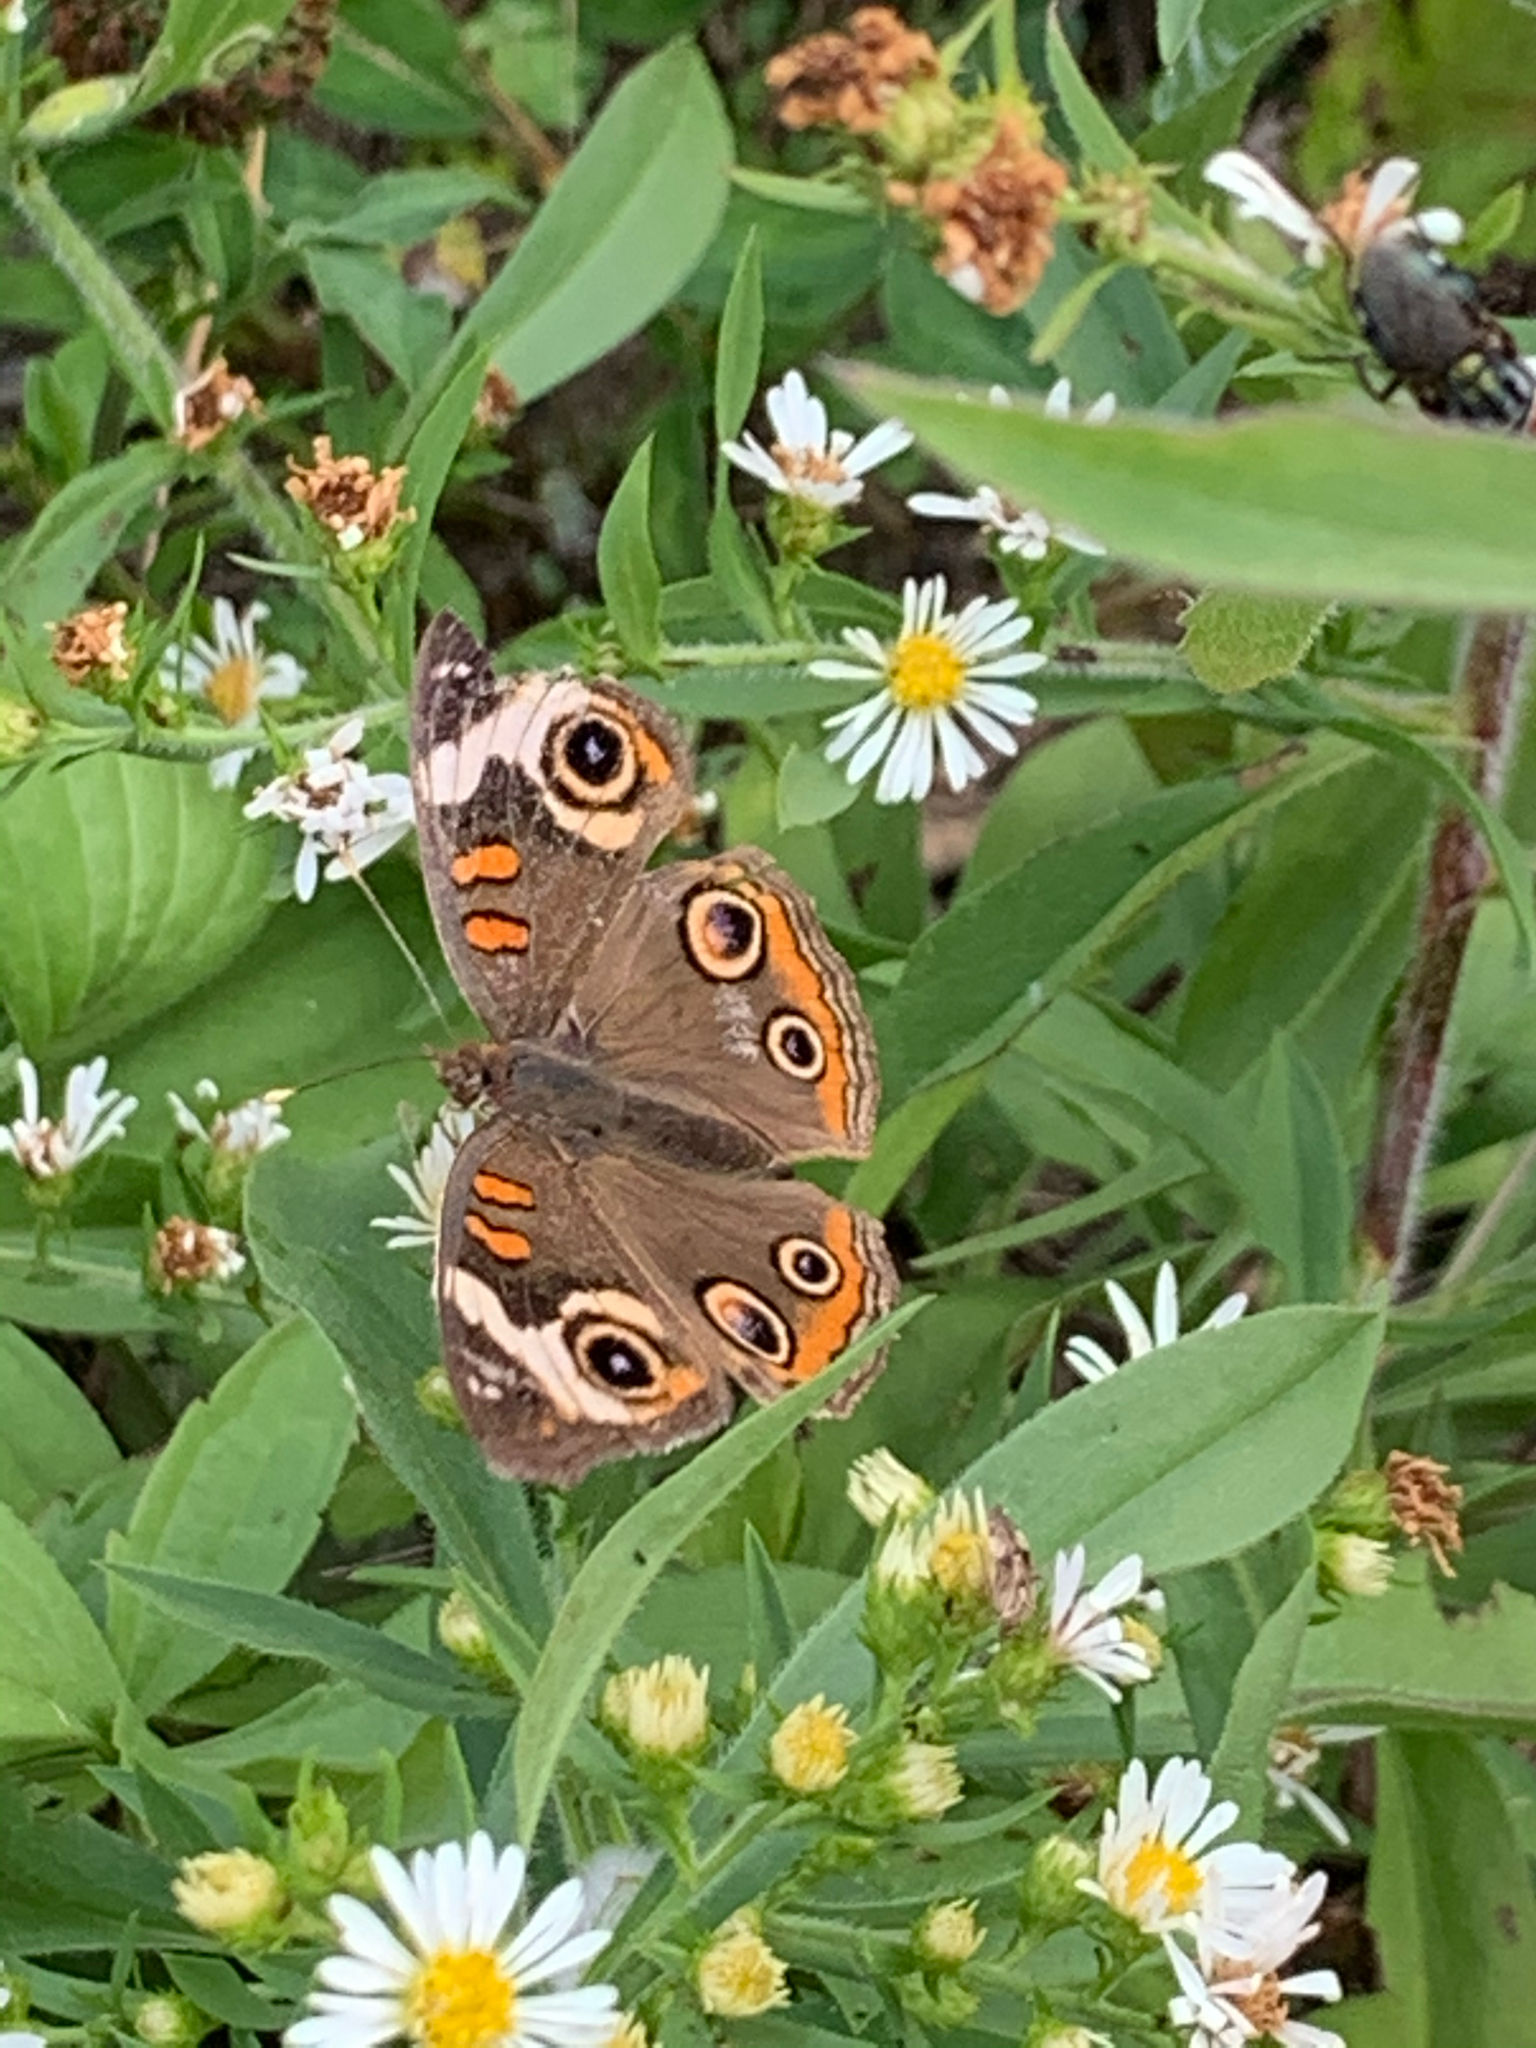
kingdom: Animalia
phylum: Arthropoda
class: Insecta
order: Lepidoptera
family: Nymphalidae
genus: Junonia
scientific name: Junonia coenia
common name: Common buckeye
